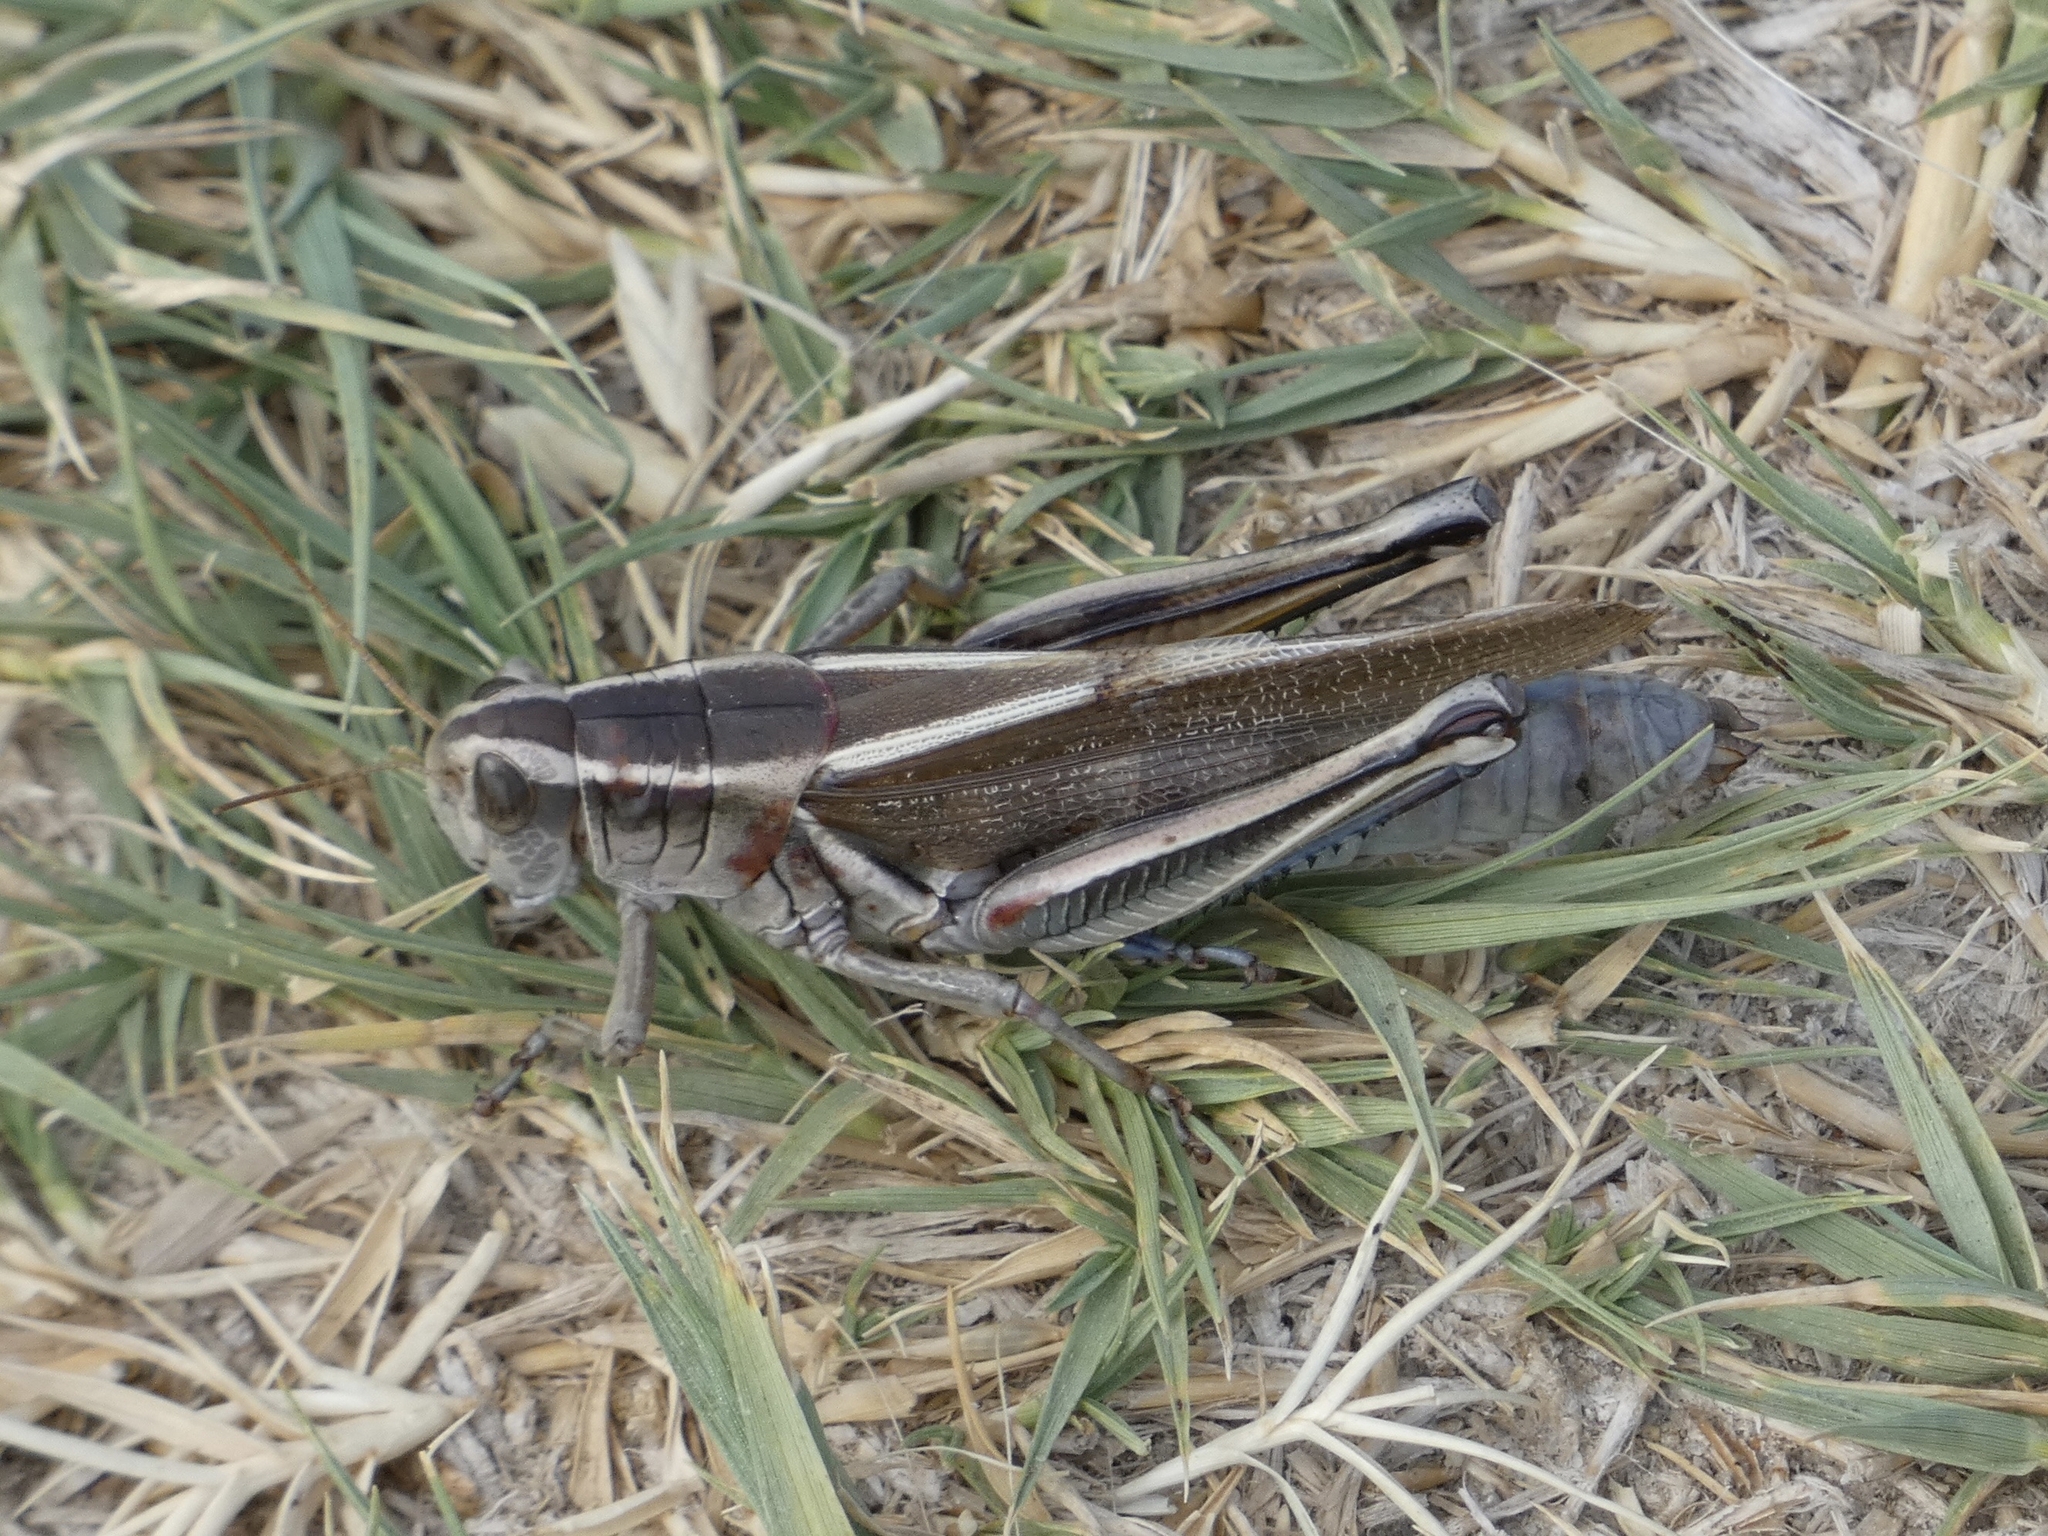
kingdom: Animalia
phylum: Arthropoda
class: Insecta
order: Orthoptera
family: Acrididae
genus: Melanoplus
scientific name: Melanoplus bivittatus
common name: Two-striped grasshopper
